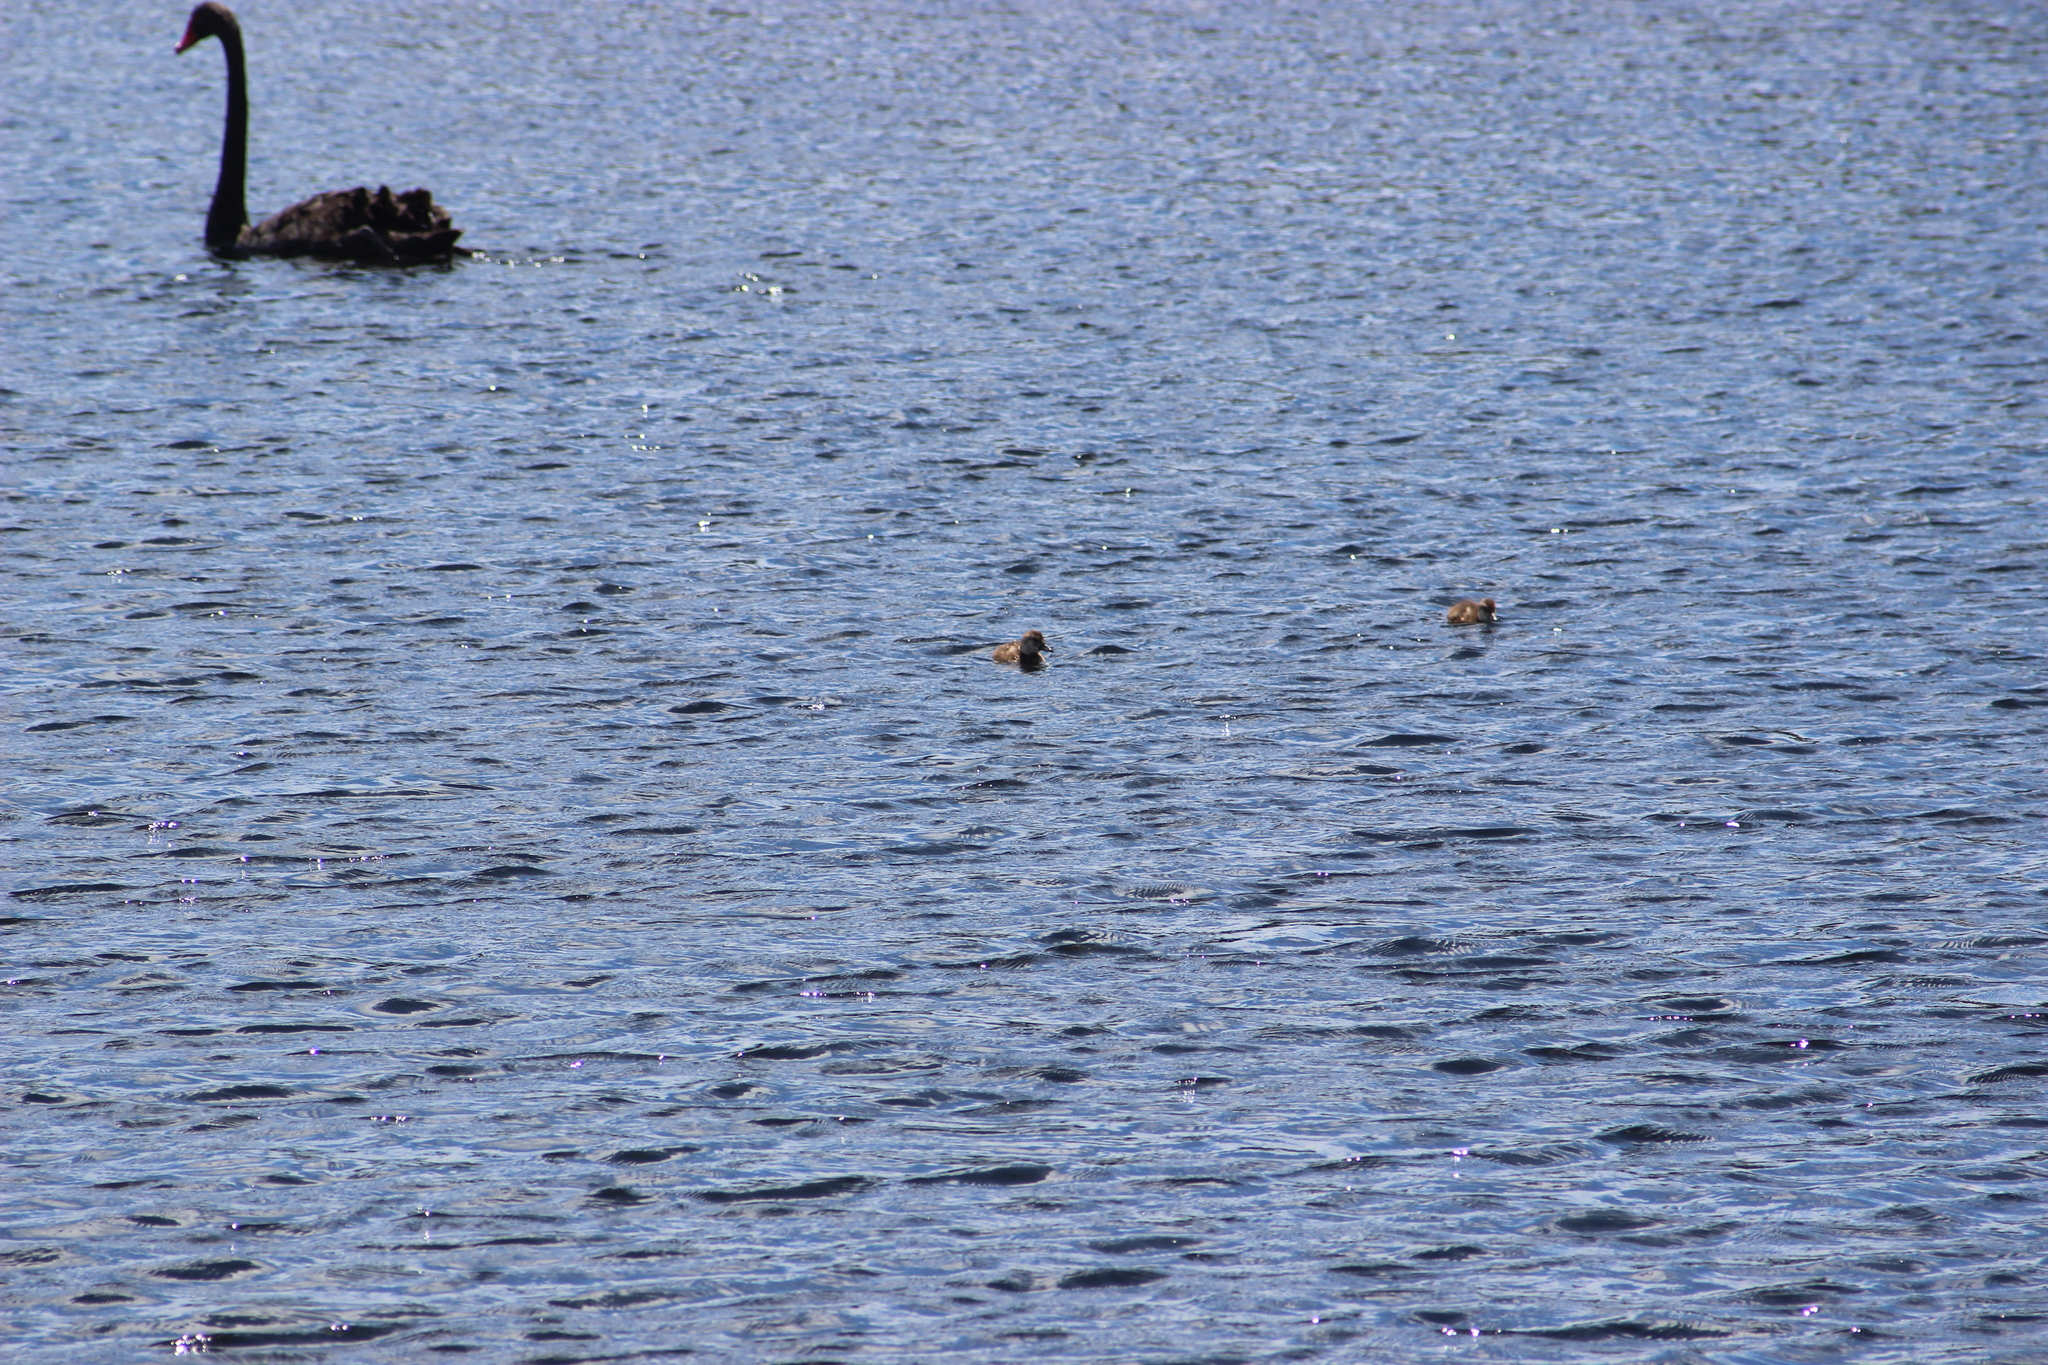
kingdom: Animalia
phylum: Chordata
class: Aves
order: Anseriformes
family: Anatidae
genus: Aythya
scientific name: Aythya novaeseelandiae
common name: New zealand scaup
